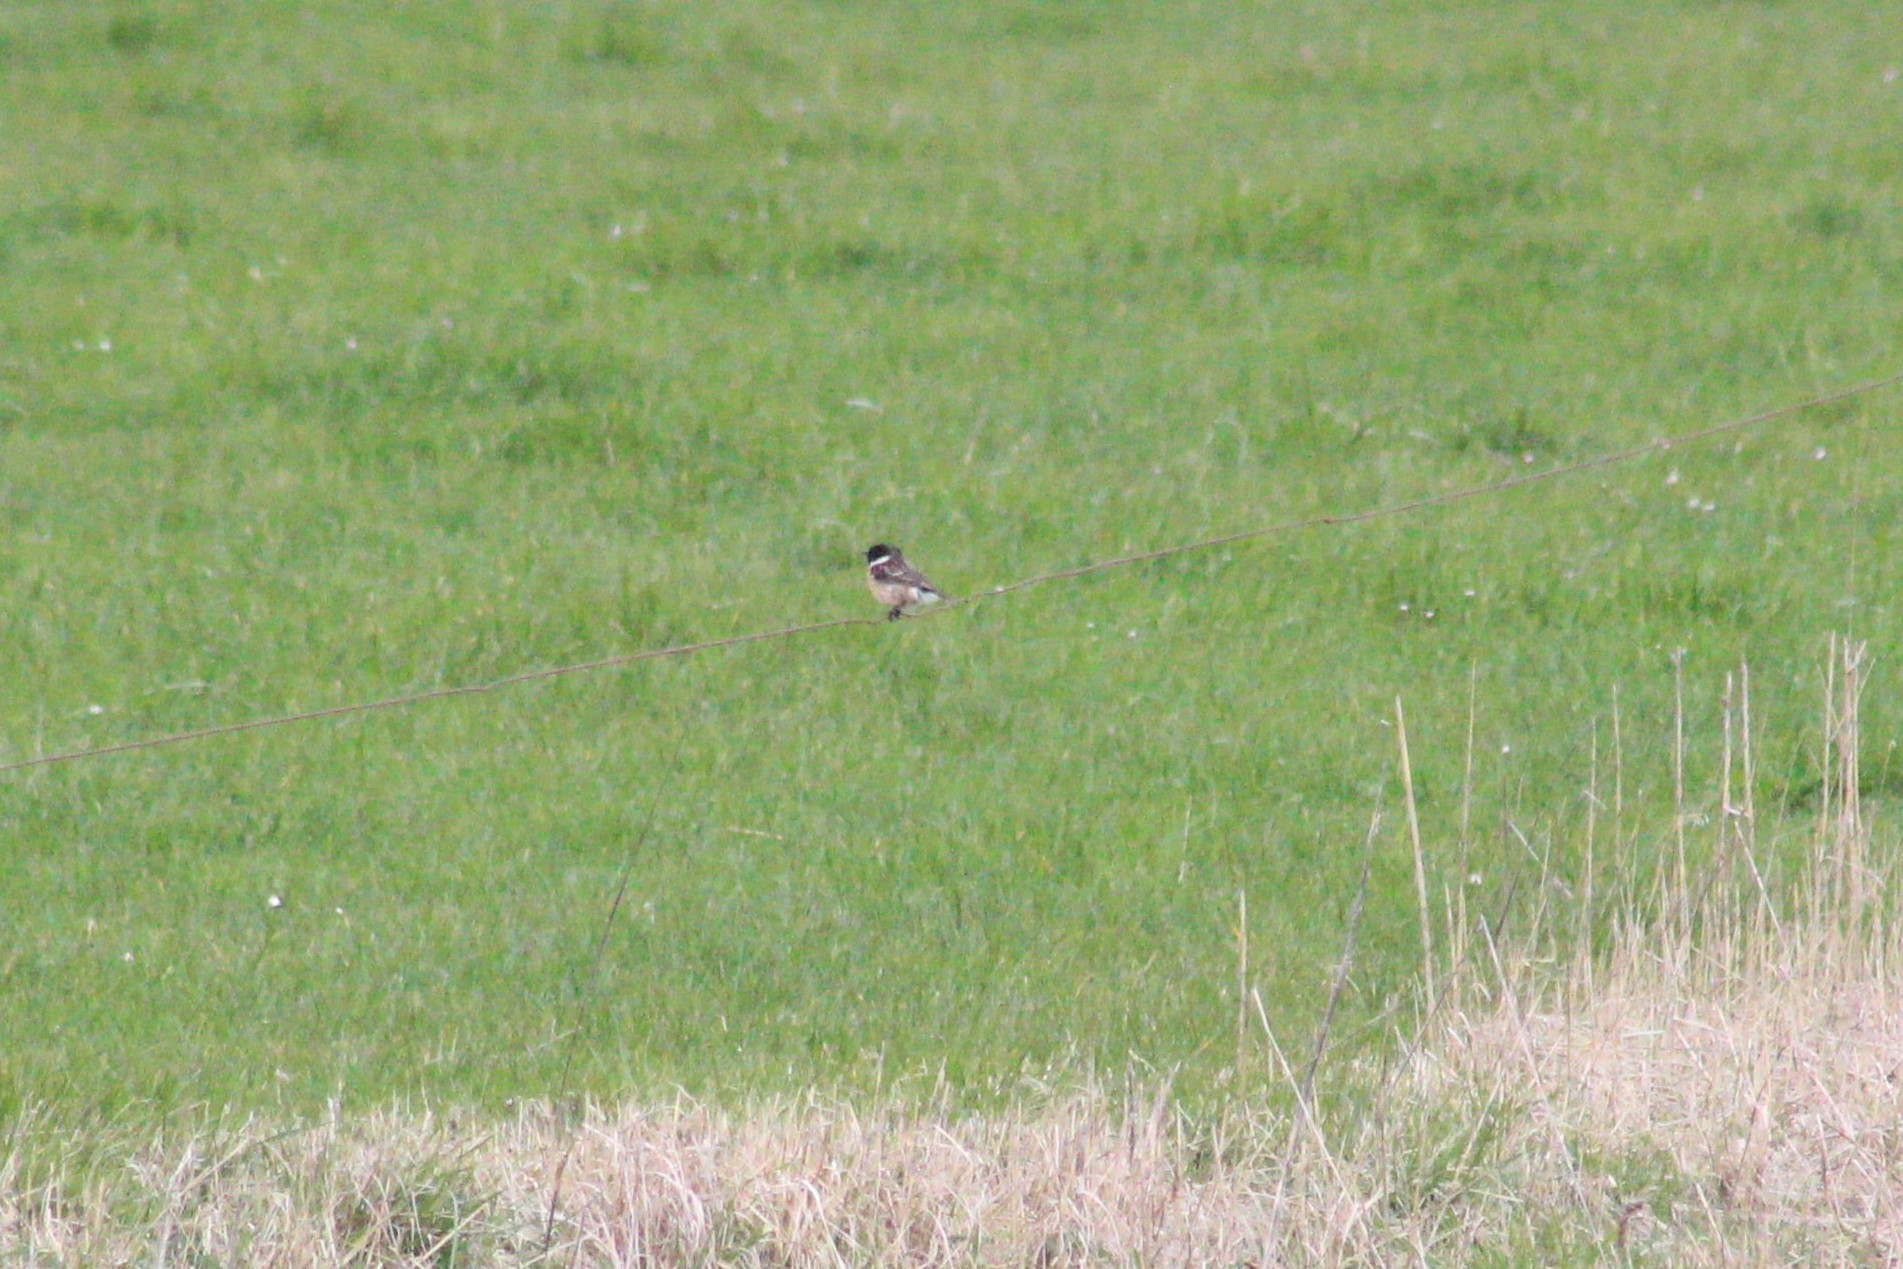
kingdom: Animalia
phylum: Chordata
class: Aves
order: Passeriformes
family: Muscicapidae
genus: Saxicola
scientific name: Saxicola rubicola
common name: European stonechat
